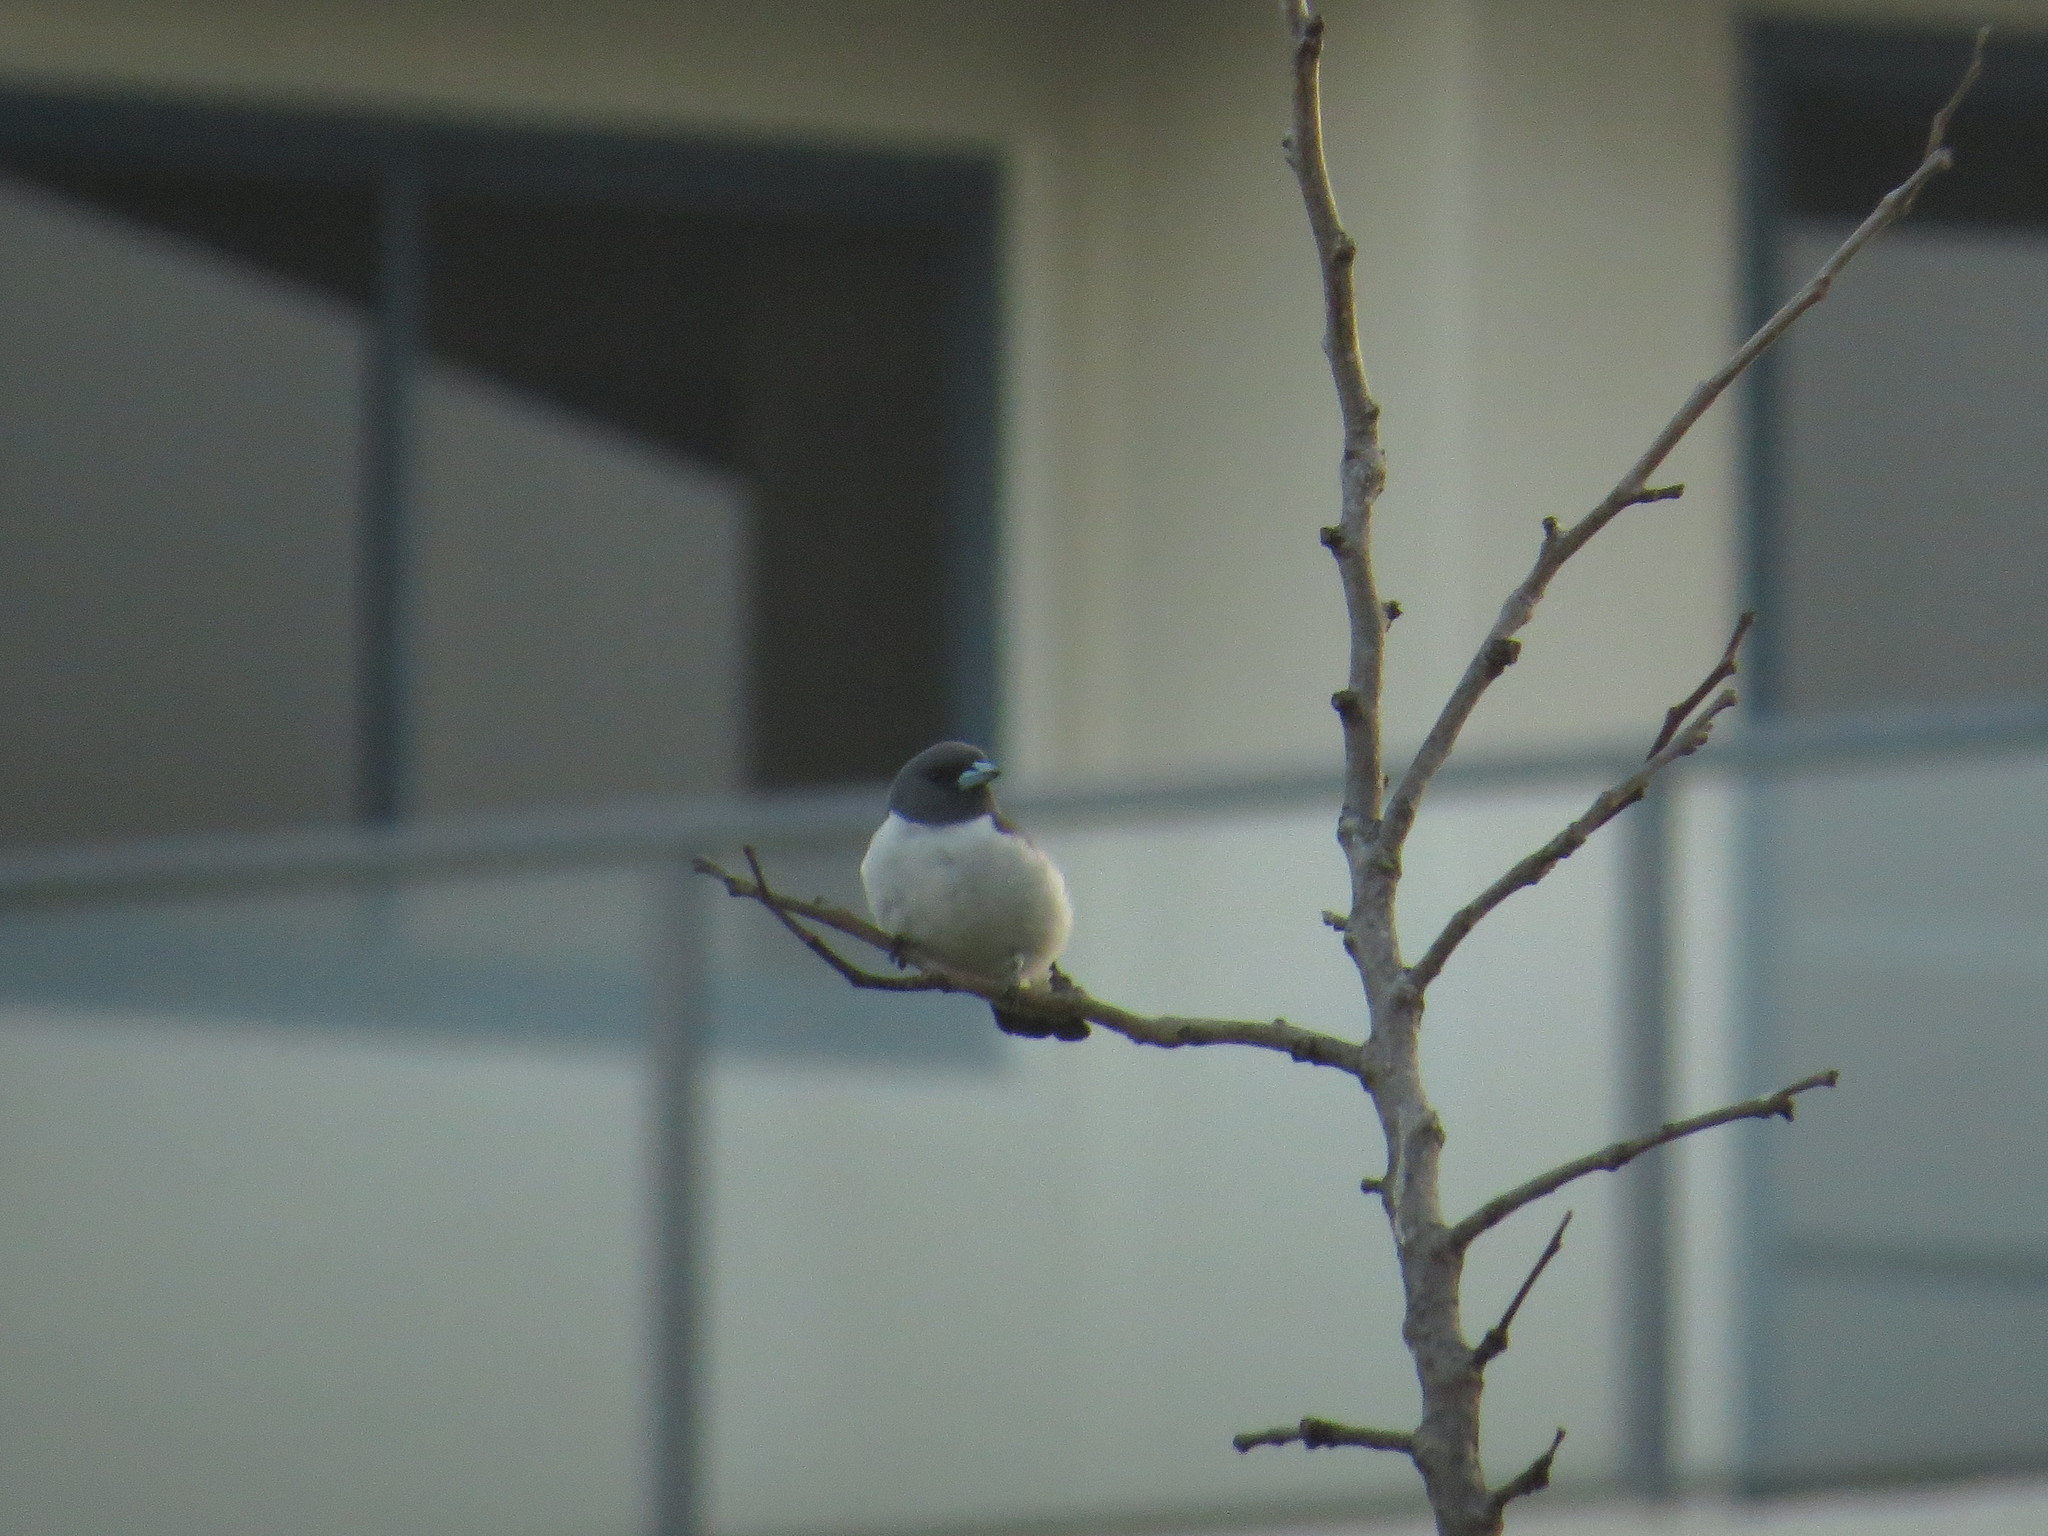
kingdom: Animalia
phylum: Chordata
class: Aves
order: Passeriformes
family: Artamidae
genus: Artamus
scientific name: Artamus leucoryn
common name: White-breasted woodswallow
